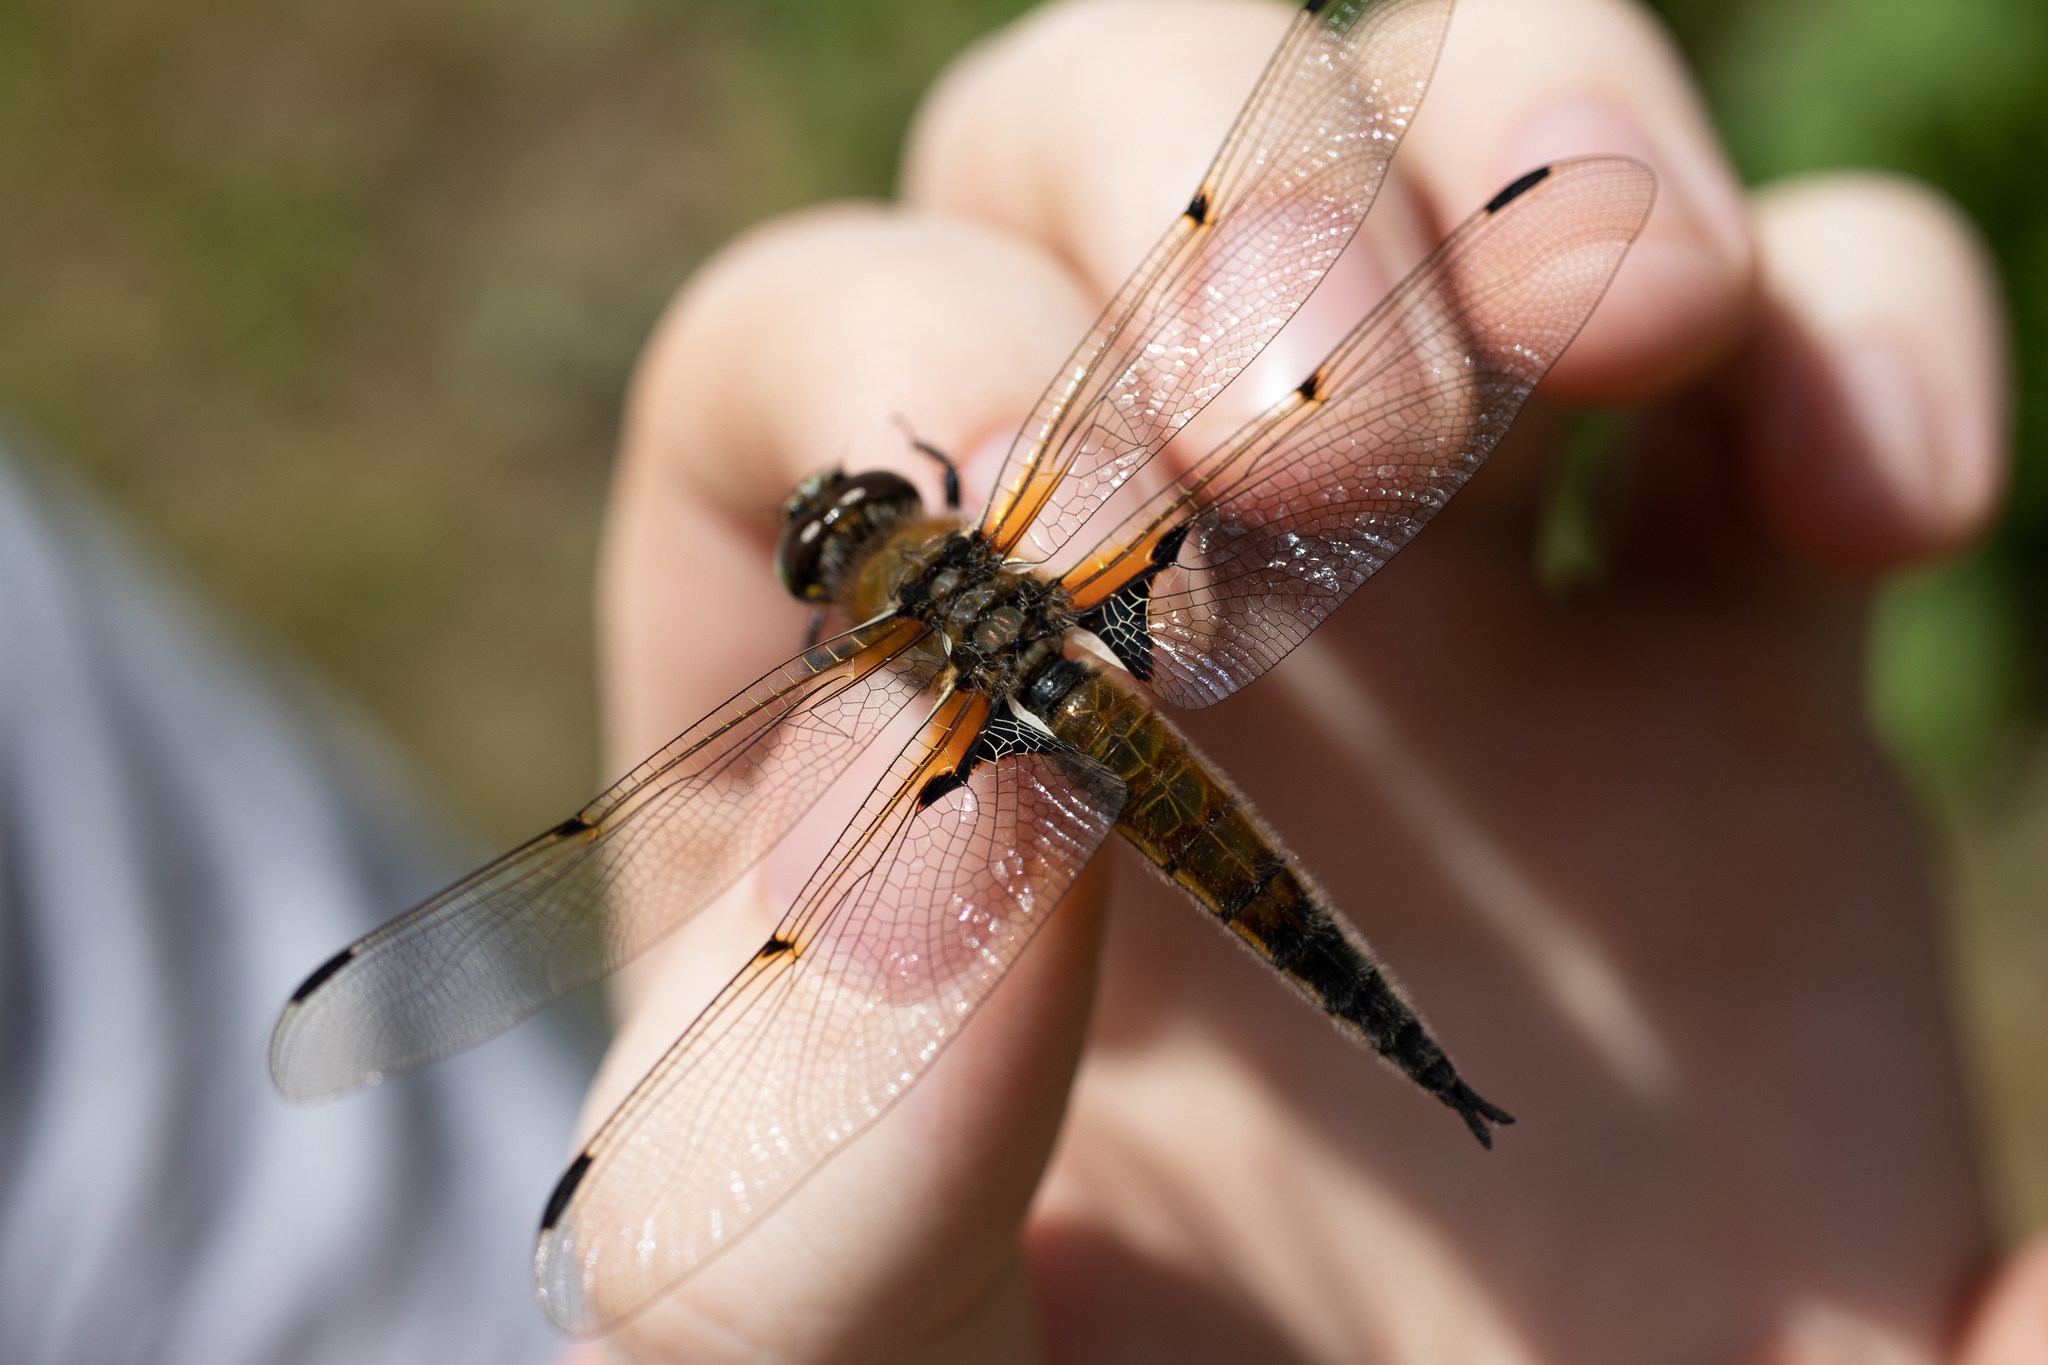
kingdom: Animalia
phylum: Arthropoda
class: Insecta
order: Odonata
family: Libellulidae
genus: Libellula
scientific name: Libellula quadrimaculata
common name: Four-spotted chaser
